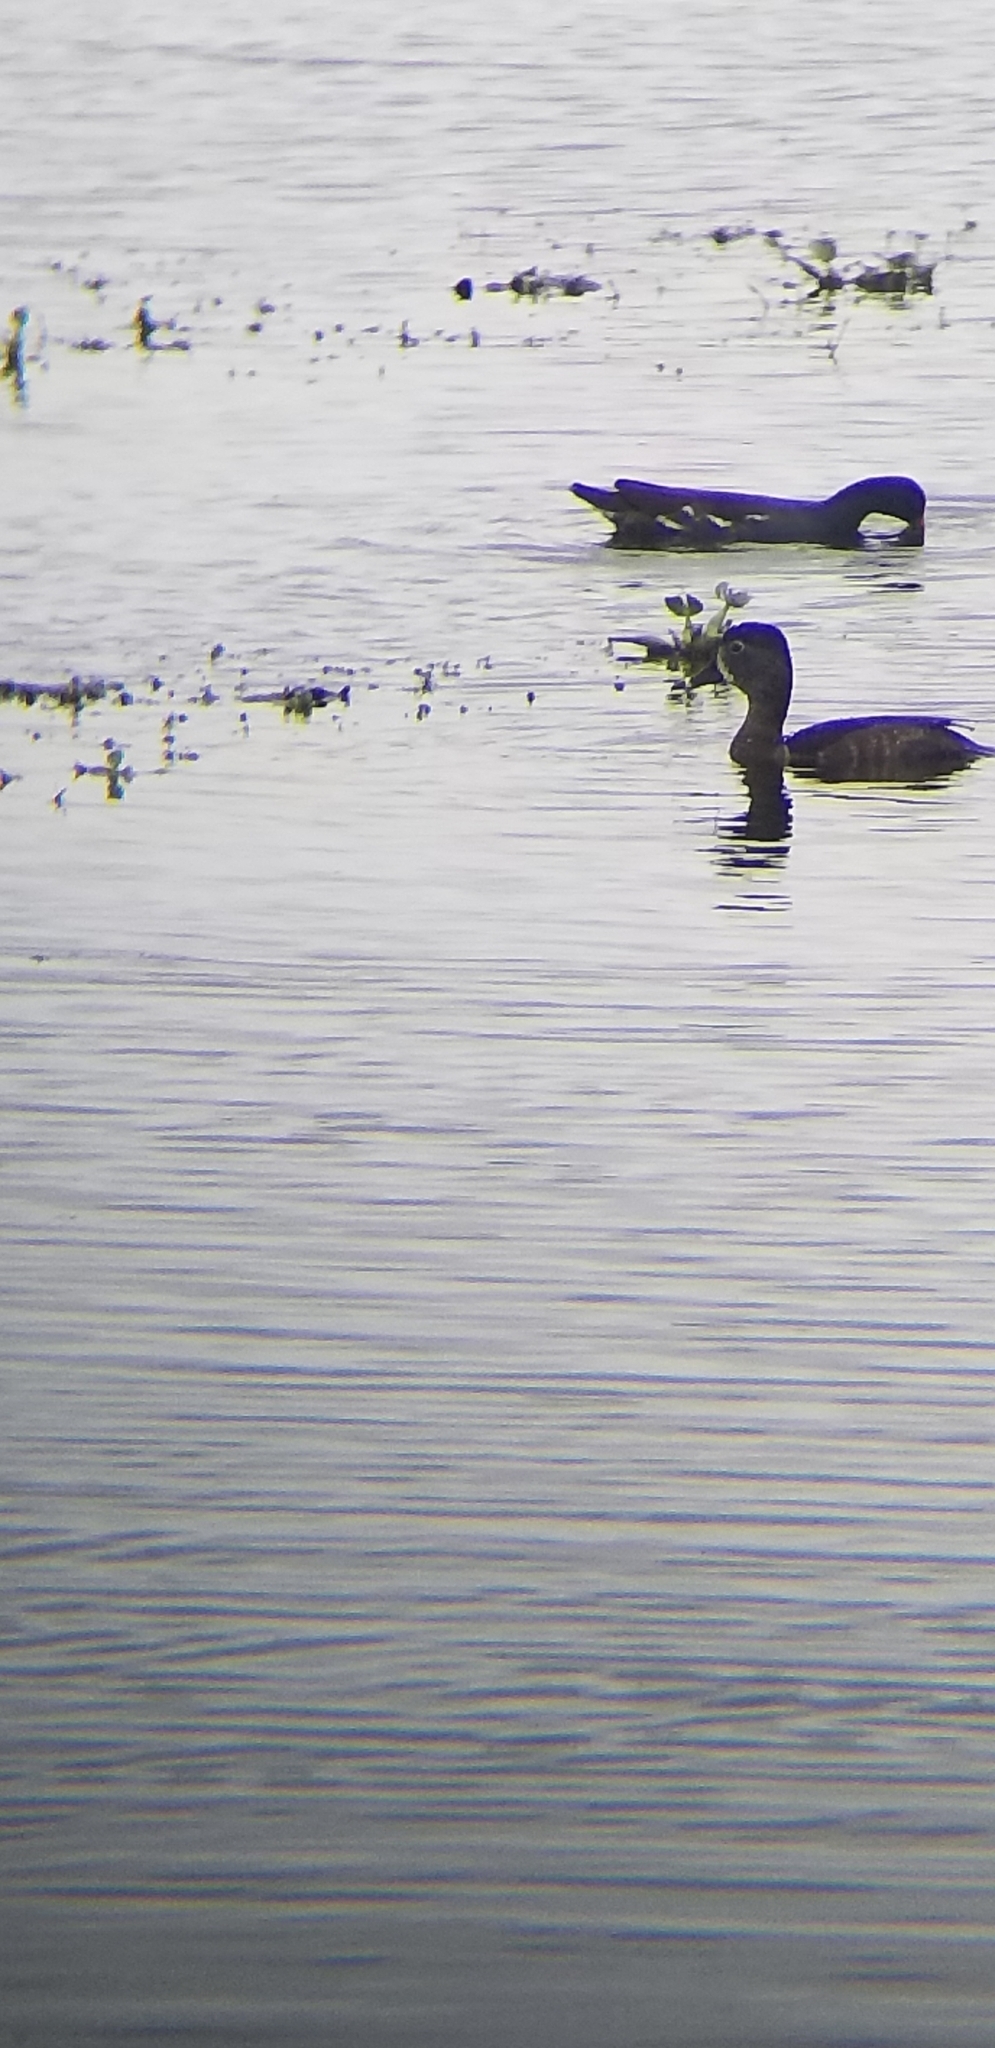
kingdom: Animalia
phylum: Chordata
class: Aves
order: Anseriformes
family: Anatidae
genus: Aythya
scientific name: Aythya collaris
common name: Ring-necked duck
